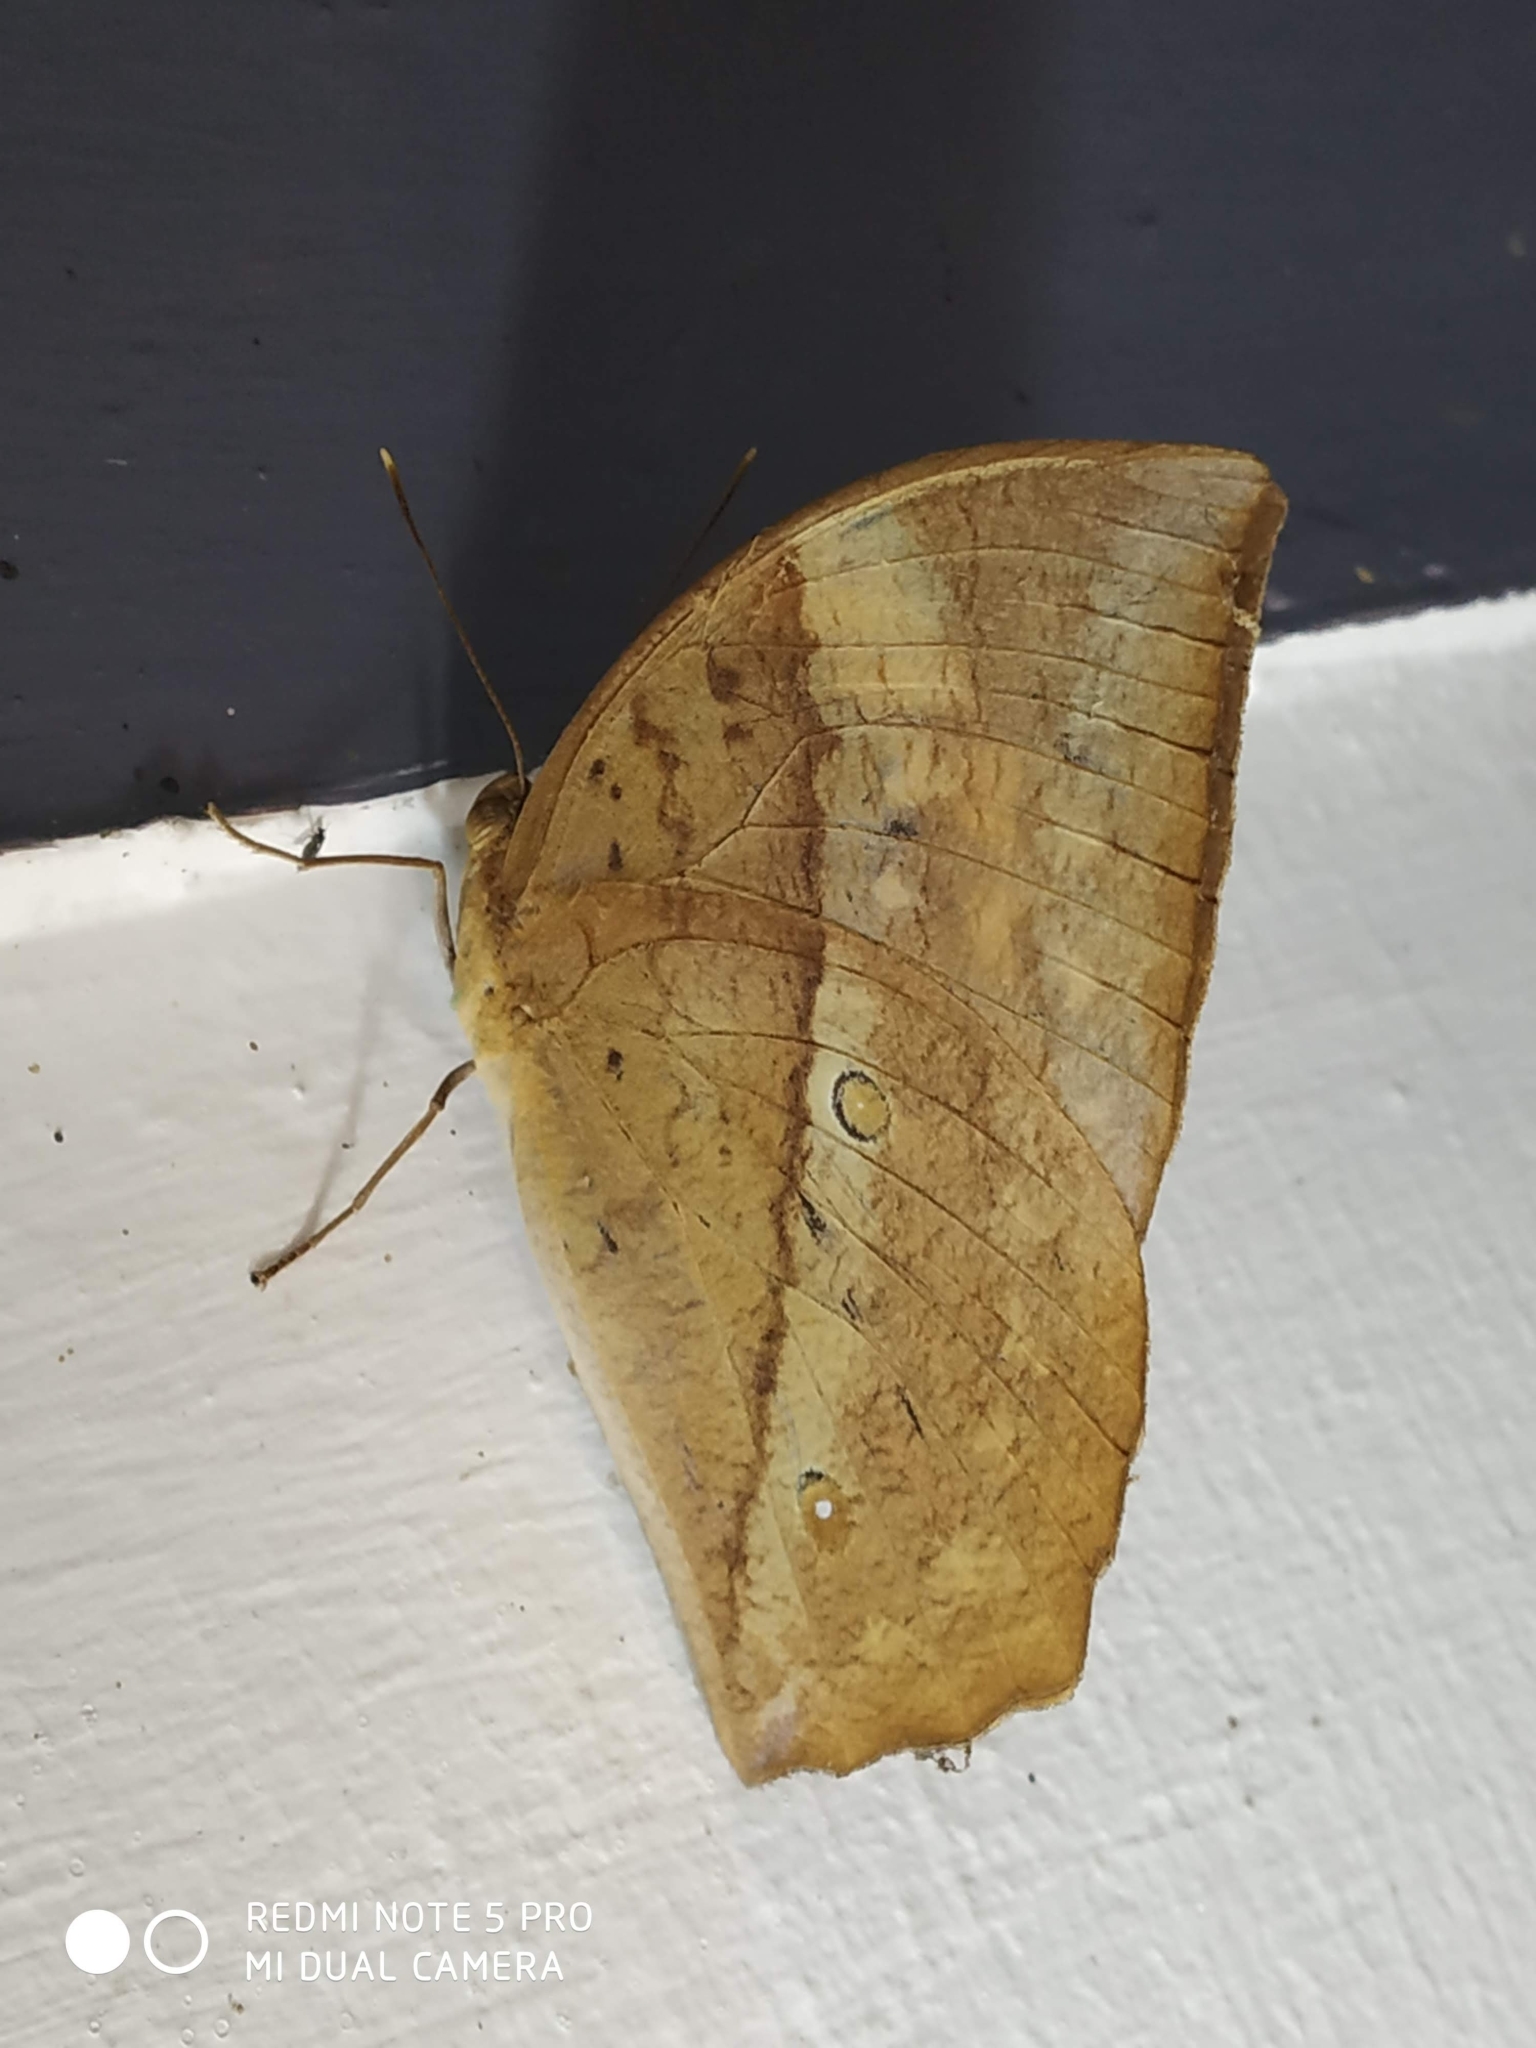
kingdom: Animalia
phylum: Arthropoda
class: Insecta
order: Lepidoptera
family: Nymphalidae
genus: Discophora
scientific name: Discophora lepida
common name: Southern duffer
